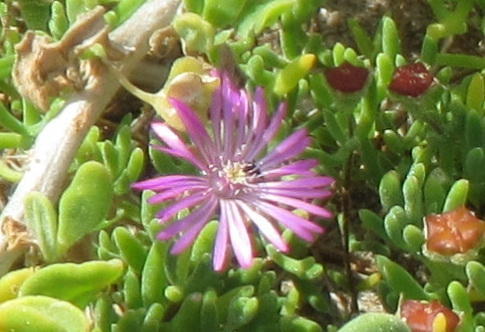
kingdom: Plantae
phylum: Tracheophyta
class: Magnoliopsida
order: Caryophyllales
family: Aizoaceae
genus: Drosanthemum
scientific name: Drosanthemum candens
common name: Rodondo-creeper
